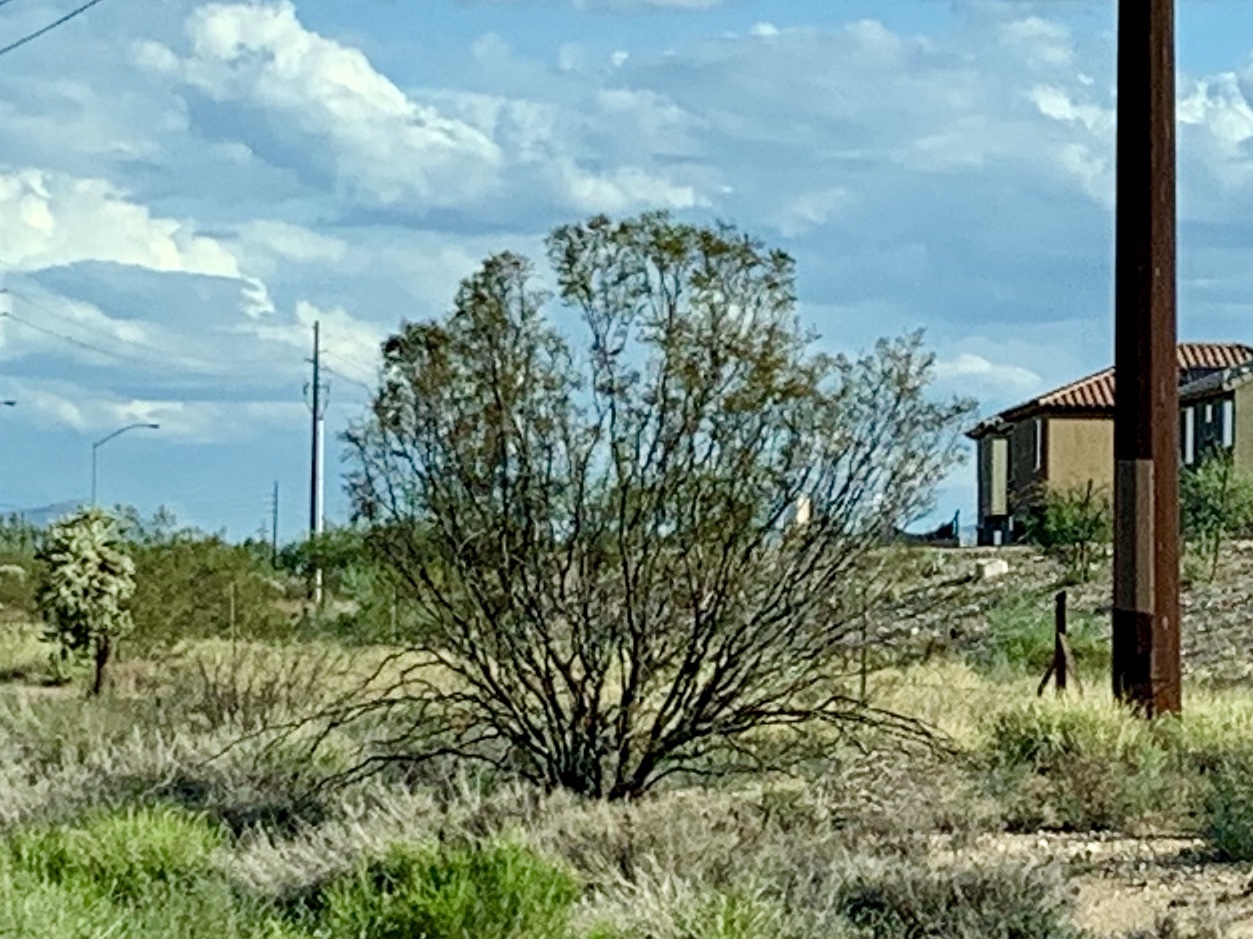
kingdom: Plantae
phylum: Tracheophyta
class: Magnoliopsida
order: Zygophyllales
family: Zygophyllaceae
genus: Larrea
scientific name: Larrea tridentata
